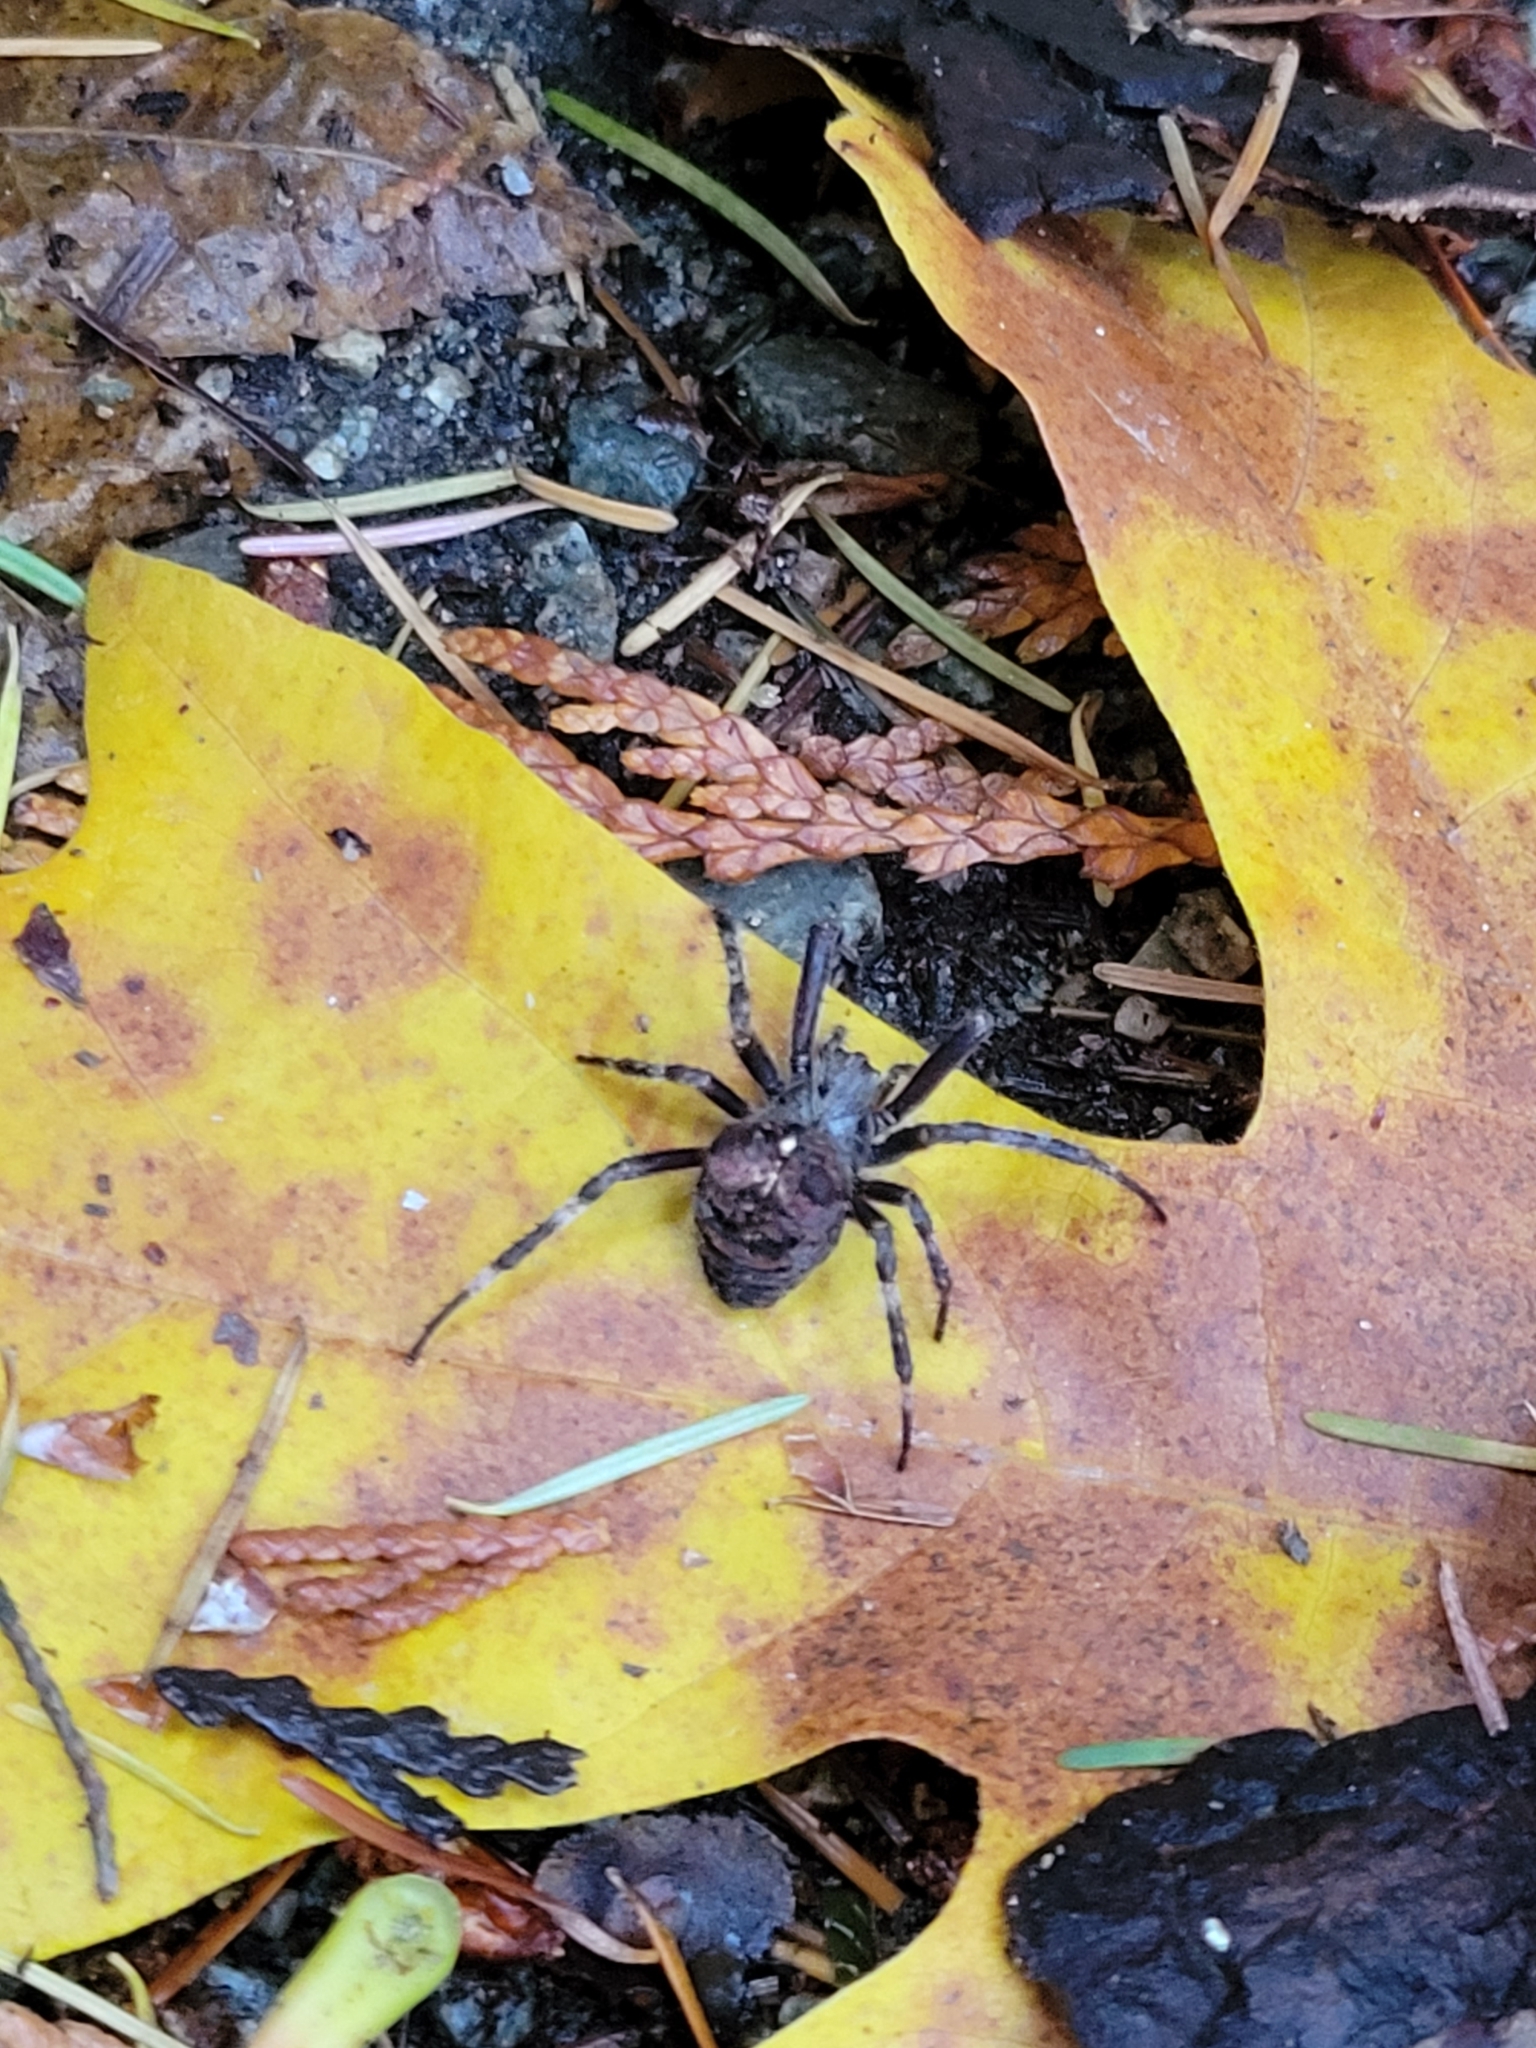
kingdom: Animalia
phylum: Arthropoda
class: Arachnida
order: Araneae
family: Araneidae
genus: Araneus
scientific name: Araneus saevus
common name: Fierce orbweaver
